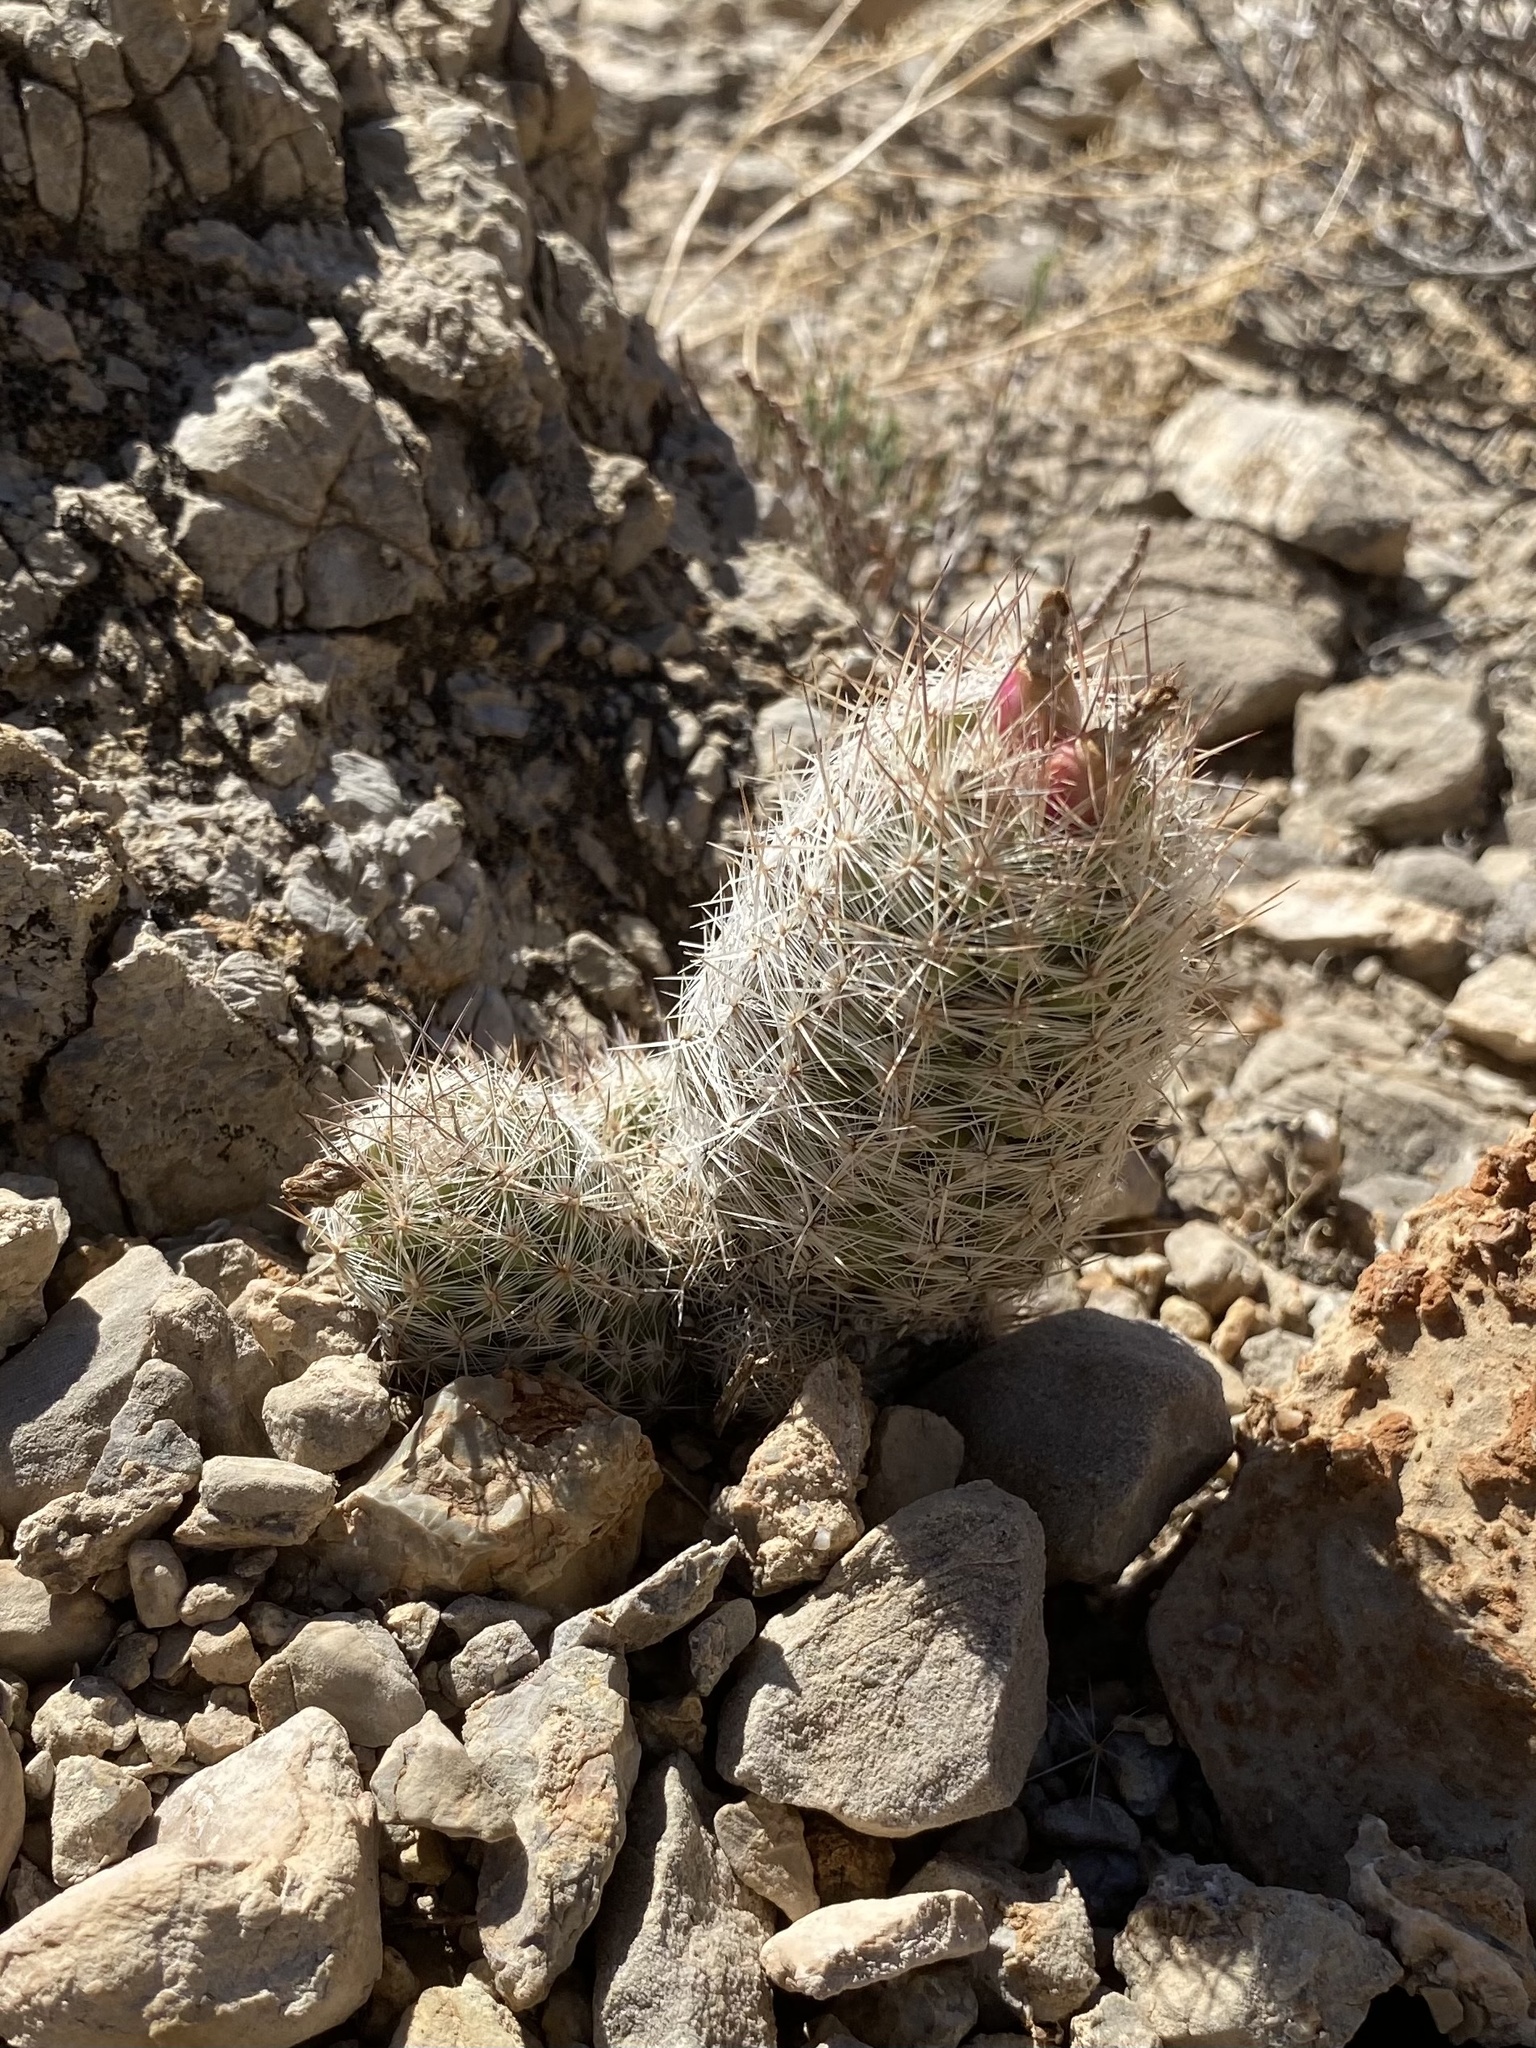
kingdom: Plantae
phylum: Tracheophyta
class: Magnoliopsida
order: Caryophyllales
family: Cactaceae
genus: Pelecyphora
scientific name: Pelecyphora tuberculosa
